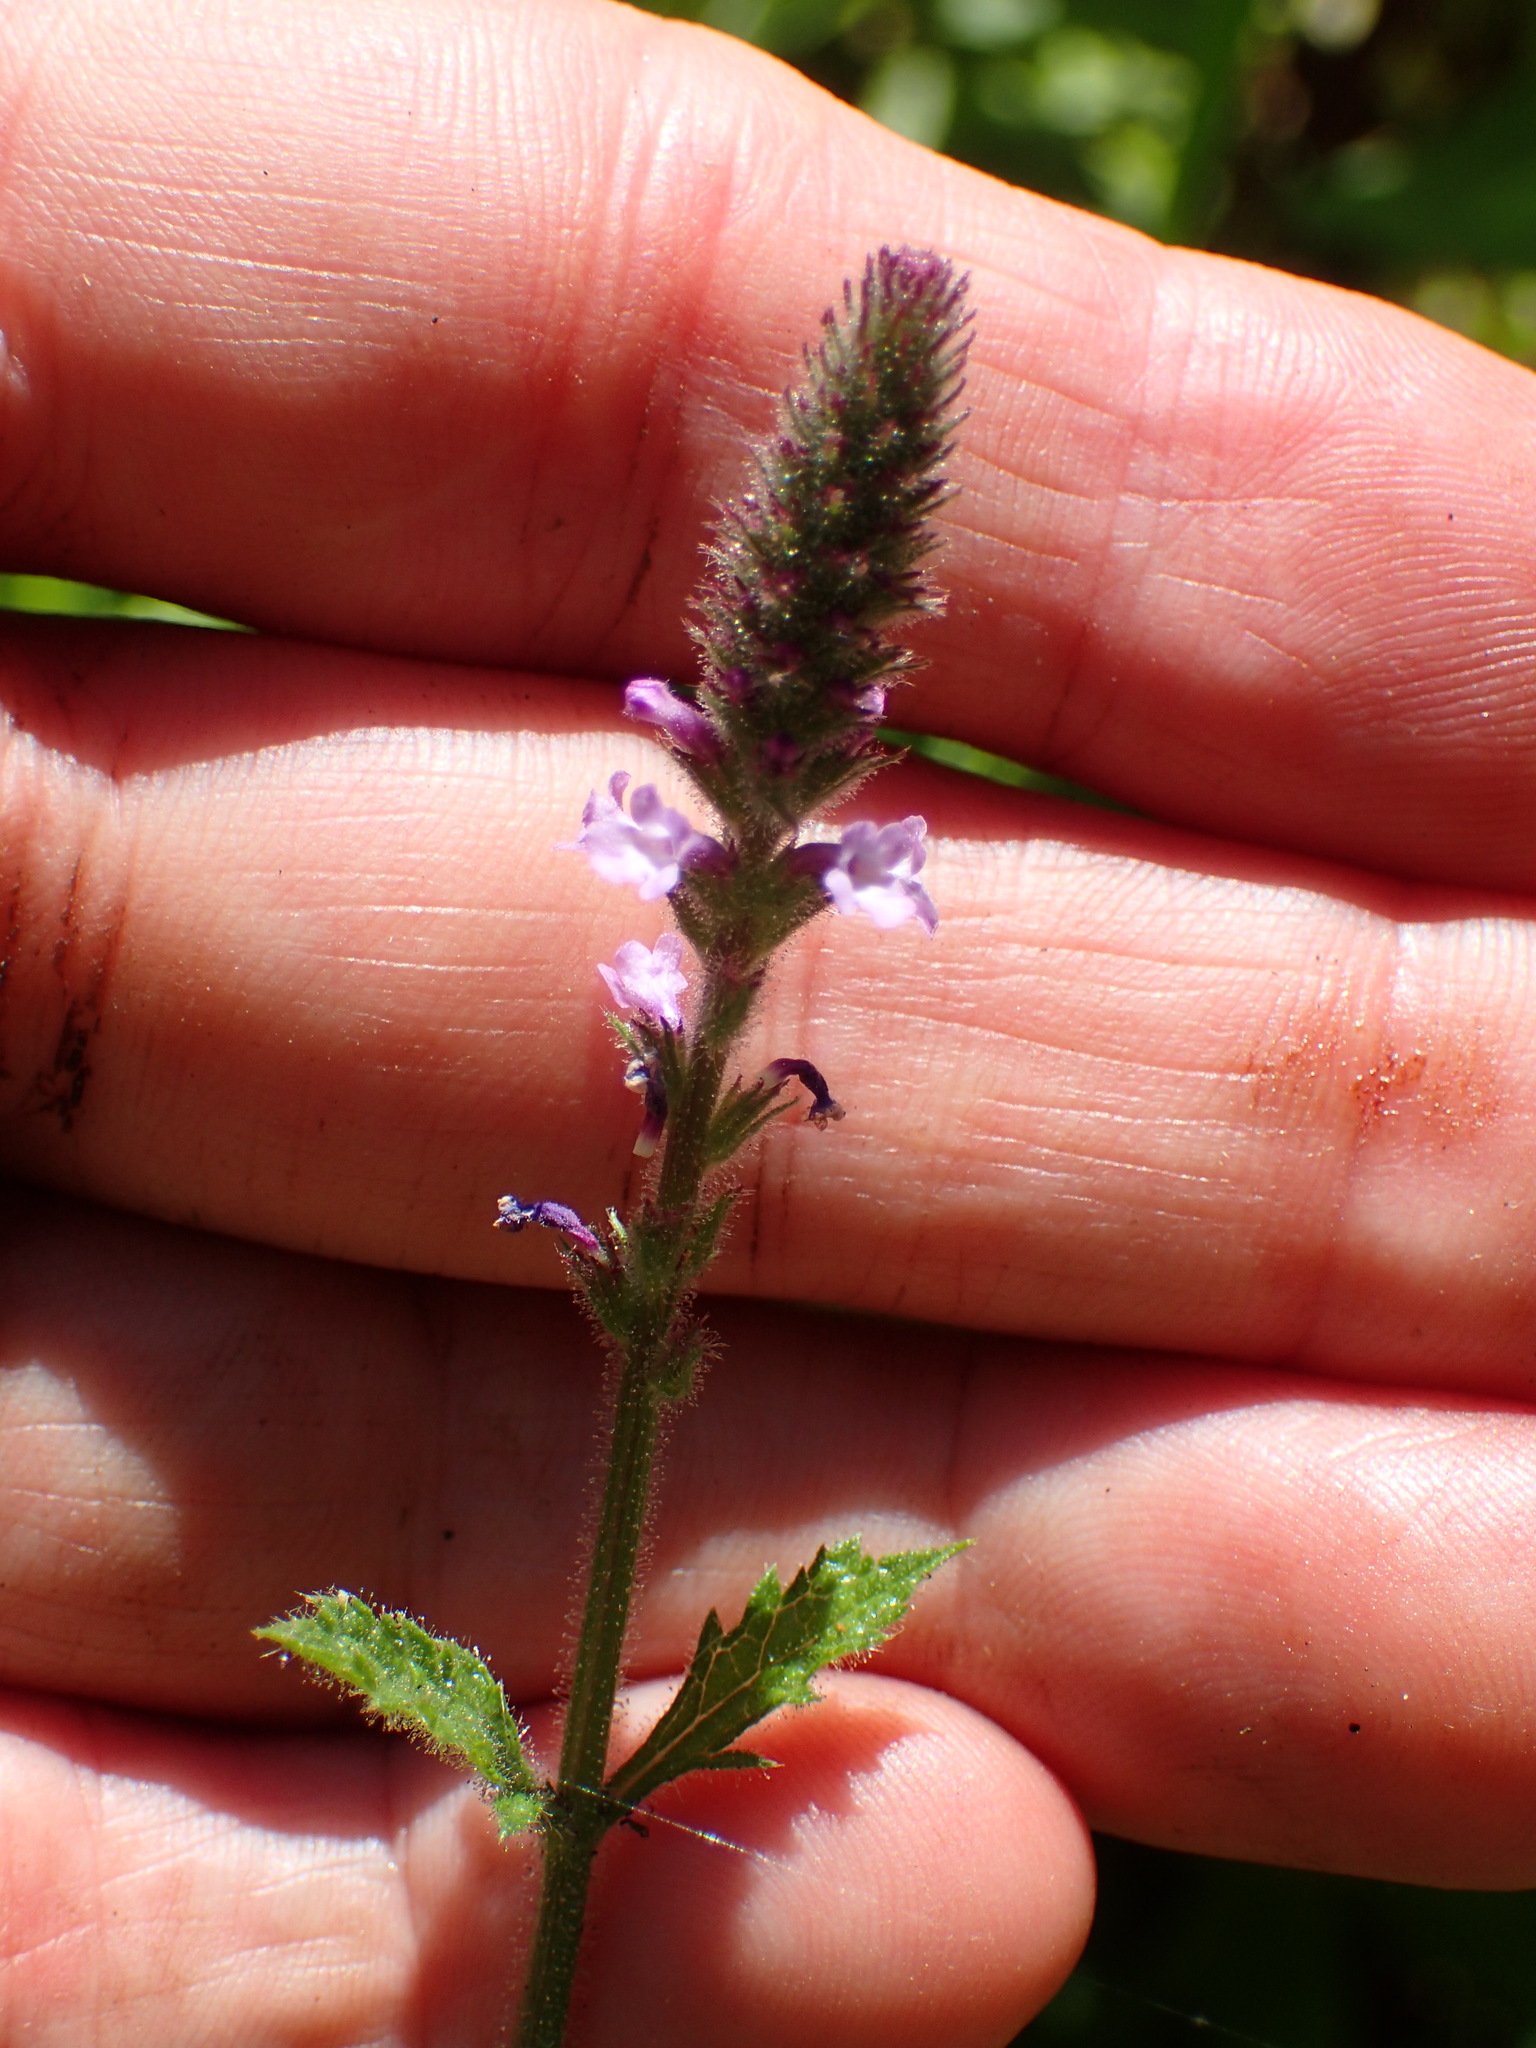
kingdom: Plantae
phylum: Tracheophyta
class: Magnoliopsida
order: Lamiales
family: Verbenaceae
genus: Verbena
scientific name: Verbena lasiostachys
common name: Vervain
